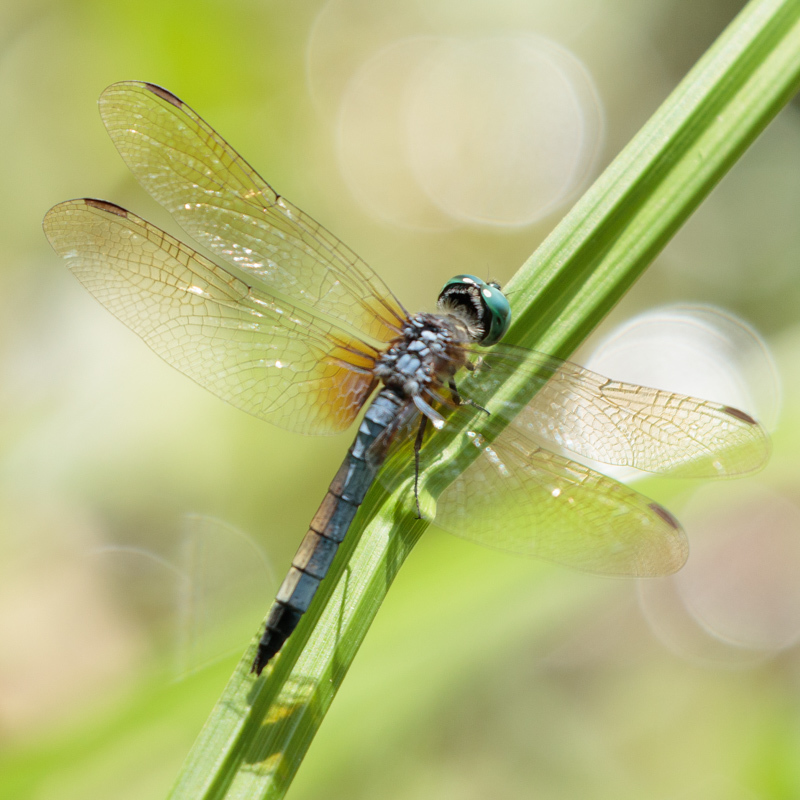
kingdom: Animalia
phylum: Arthropoda
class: Insecta
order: Odonata
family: Libellulidae
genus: Pachydiplax
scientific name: Pachydiplax longipennis
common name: Blue dasher
